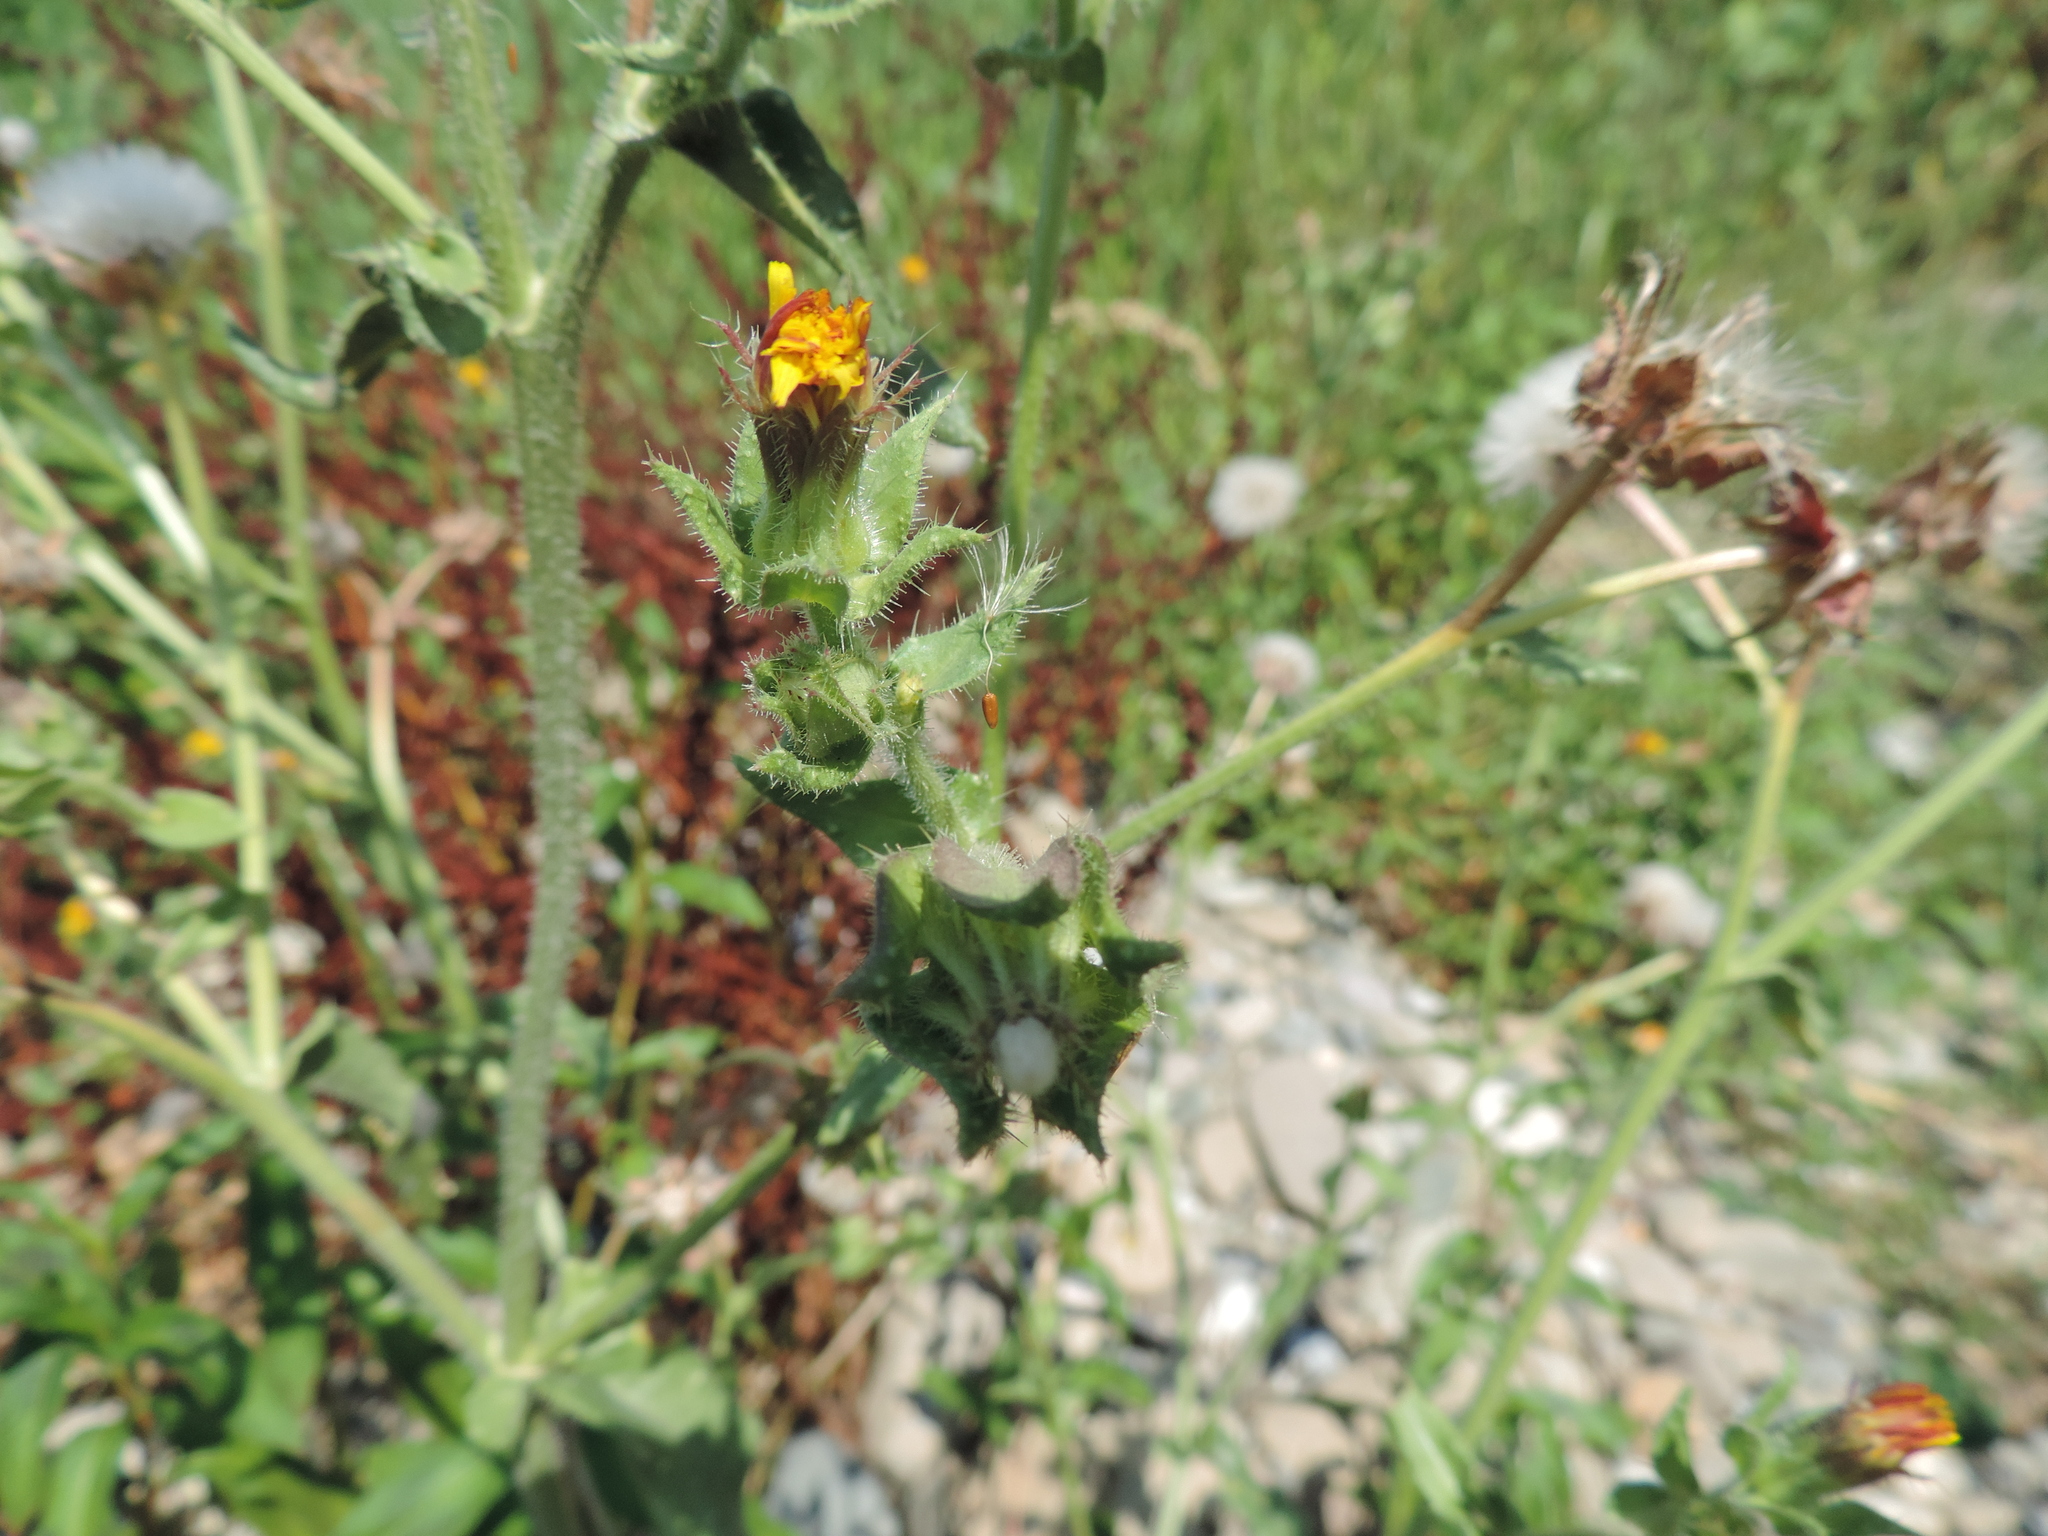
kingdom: Plantae
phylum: Tracheophyta
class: Magnoliopsida
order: Asterales
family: Asteraceae
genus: Helminthotheca
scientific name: Helminthotheca echioides
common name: Ox-tongue
